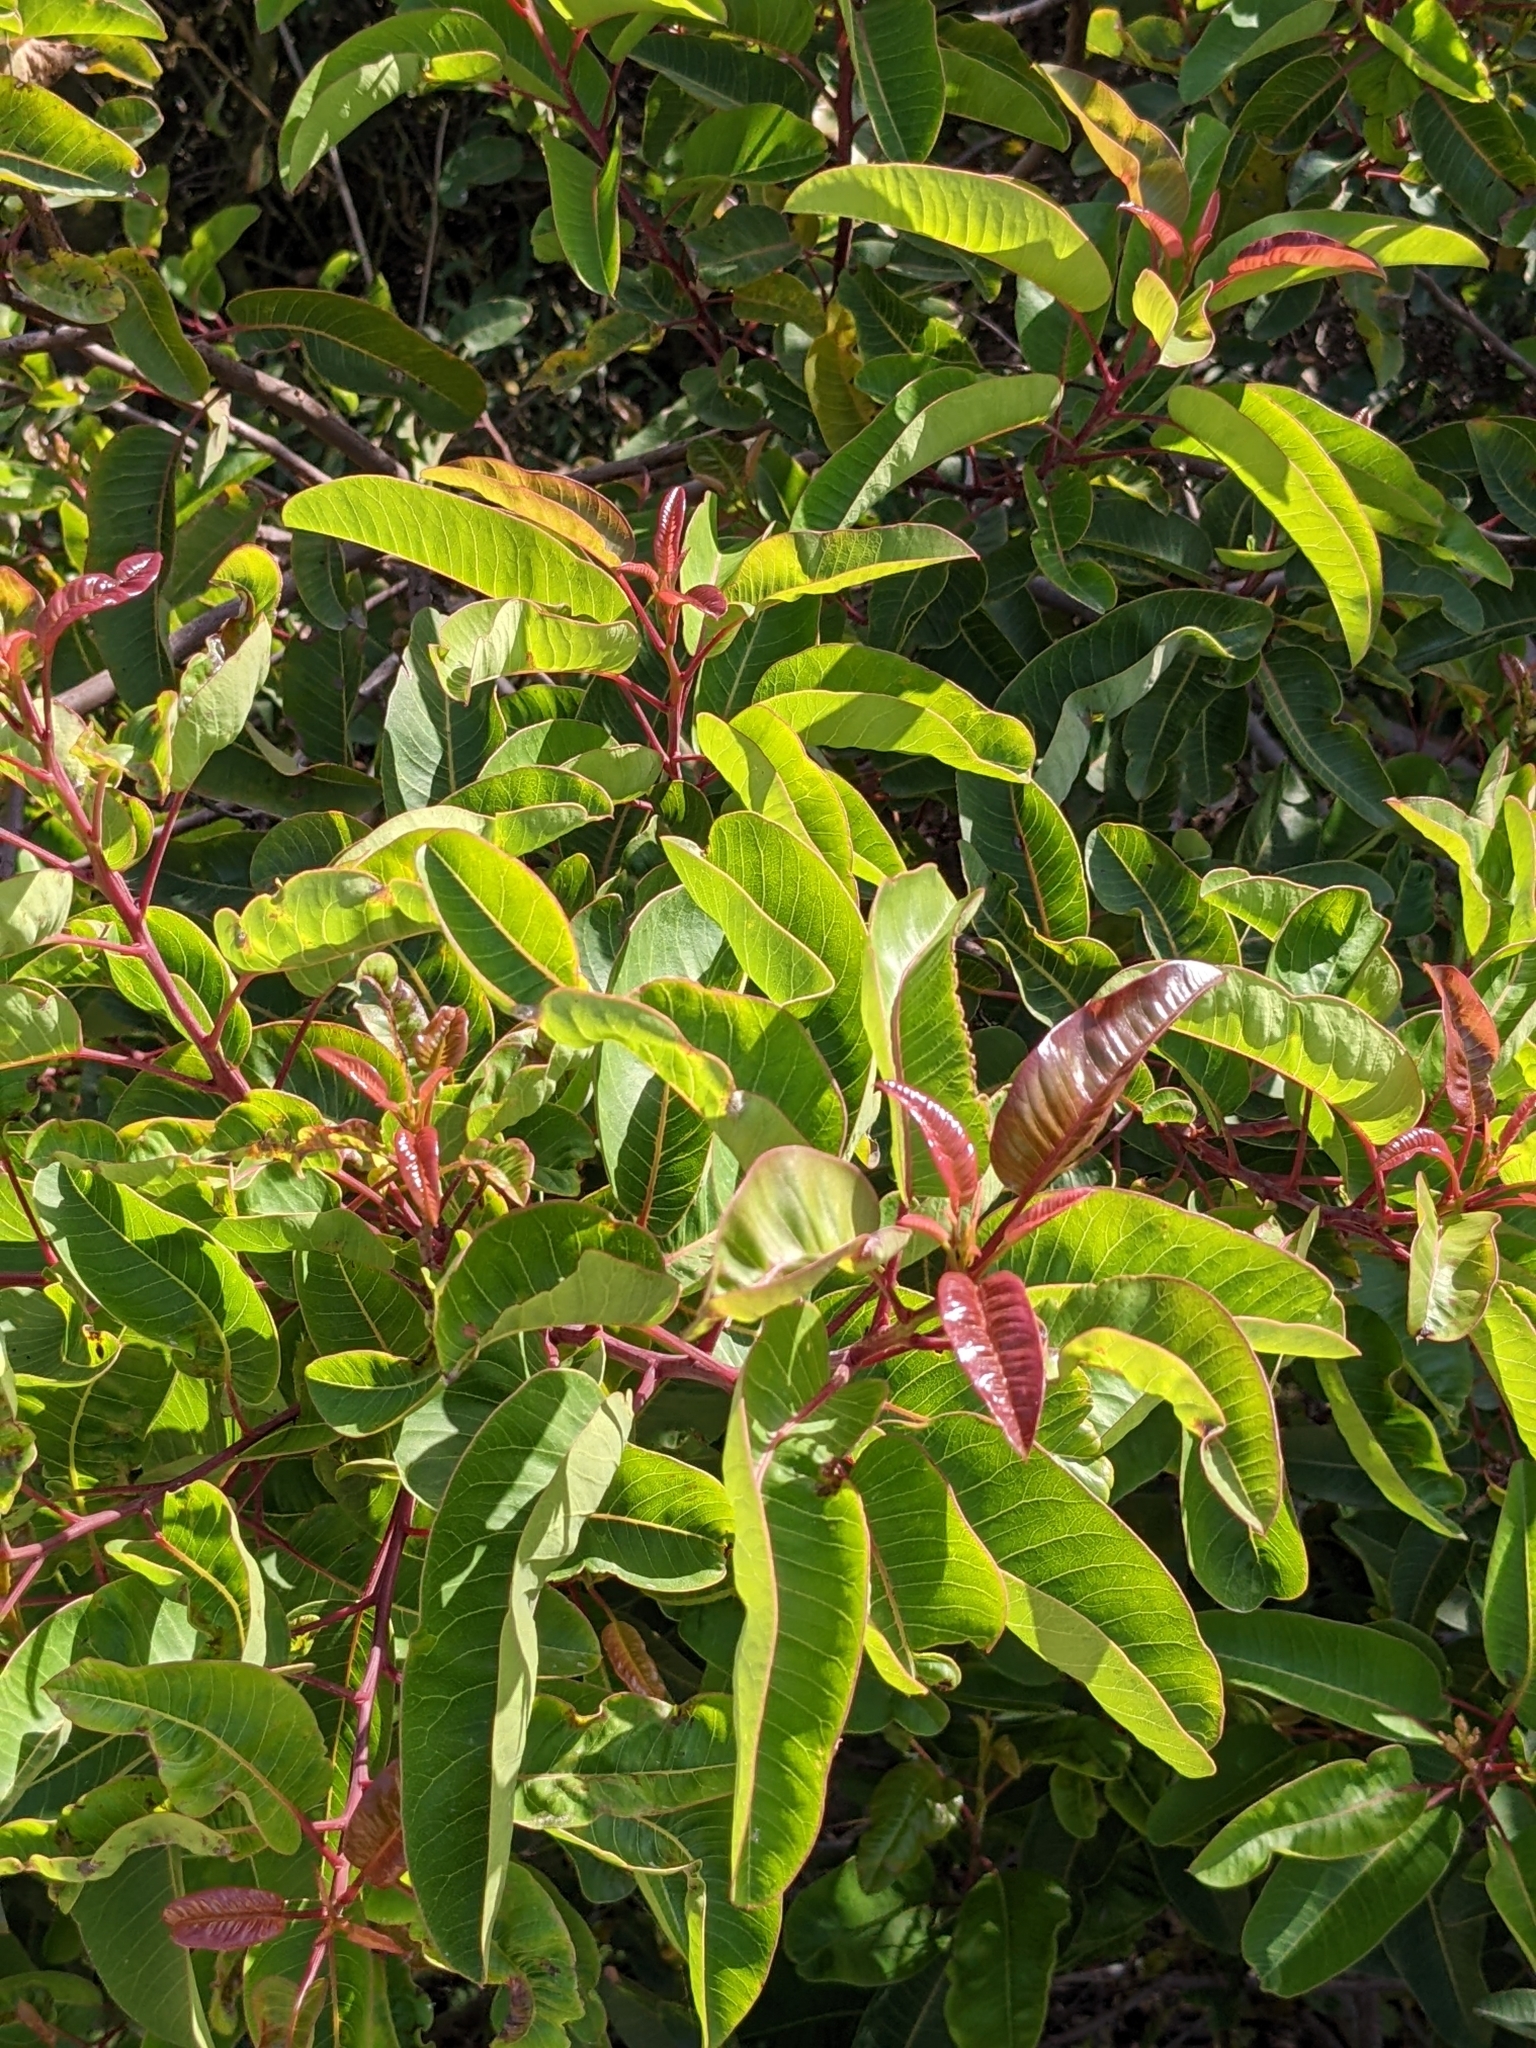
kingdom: Plantae
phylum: Tracheophyta
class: Magnoliopsida
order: Sapindales
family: Anacardiaceae
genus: Malosma
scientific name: Malosma laurina
